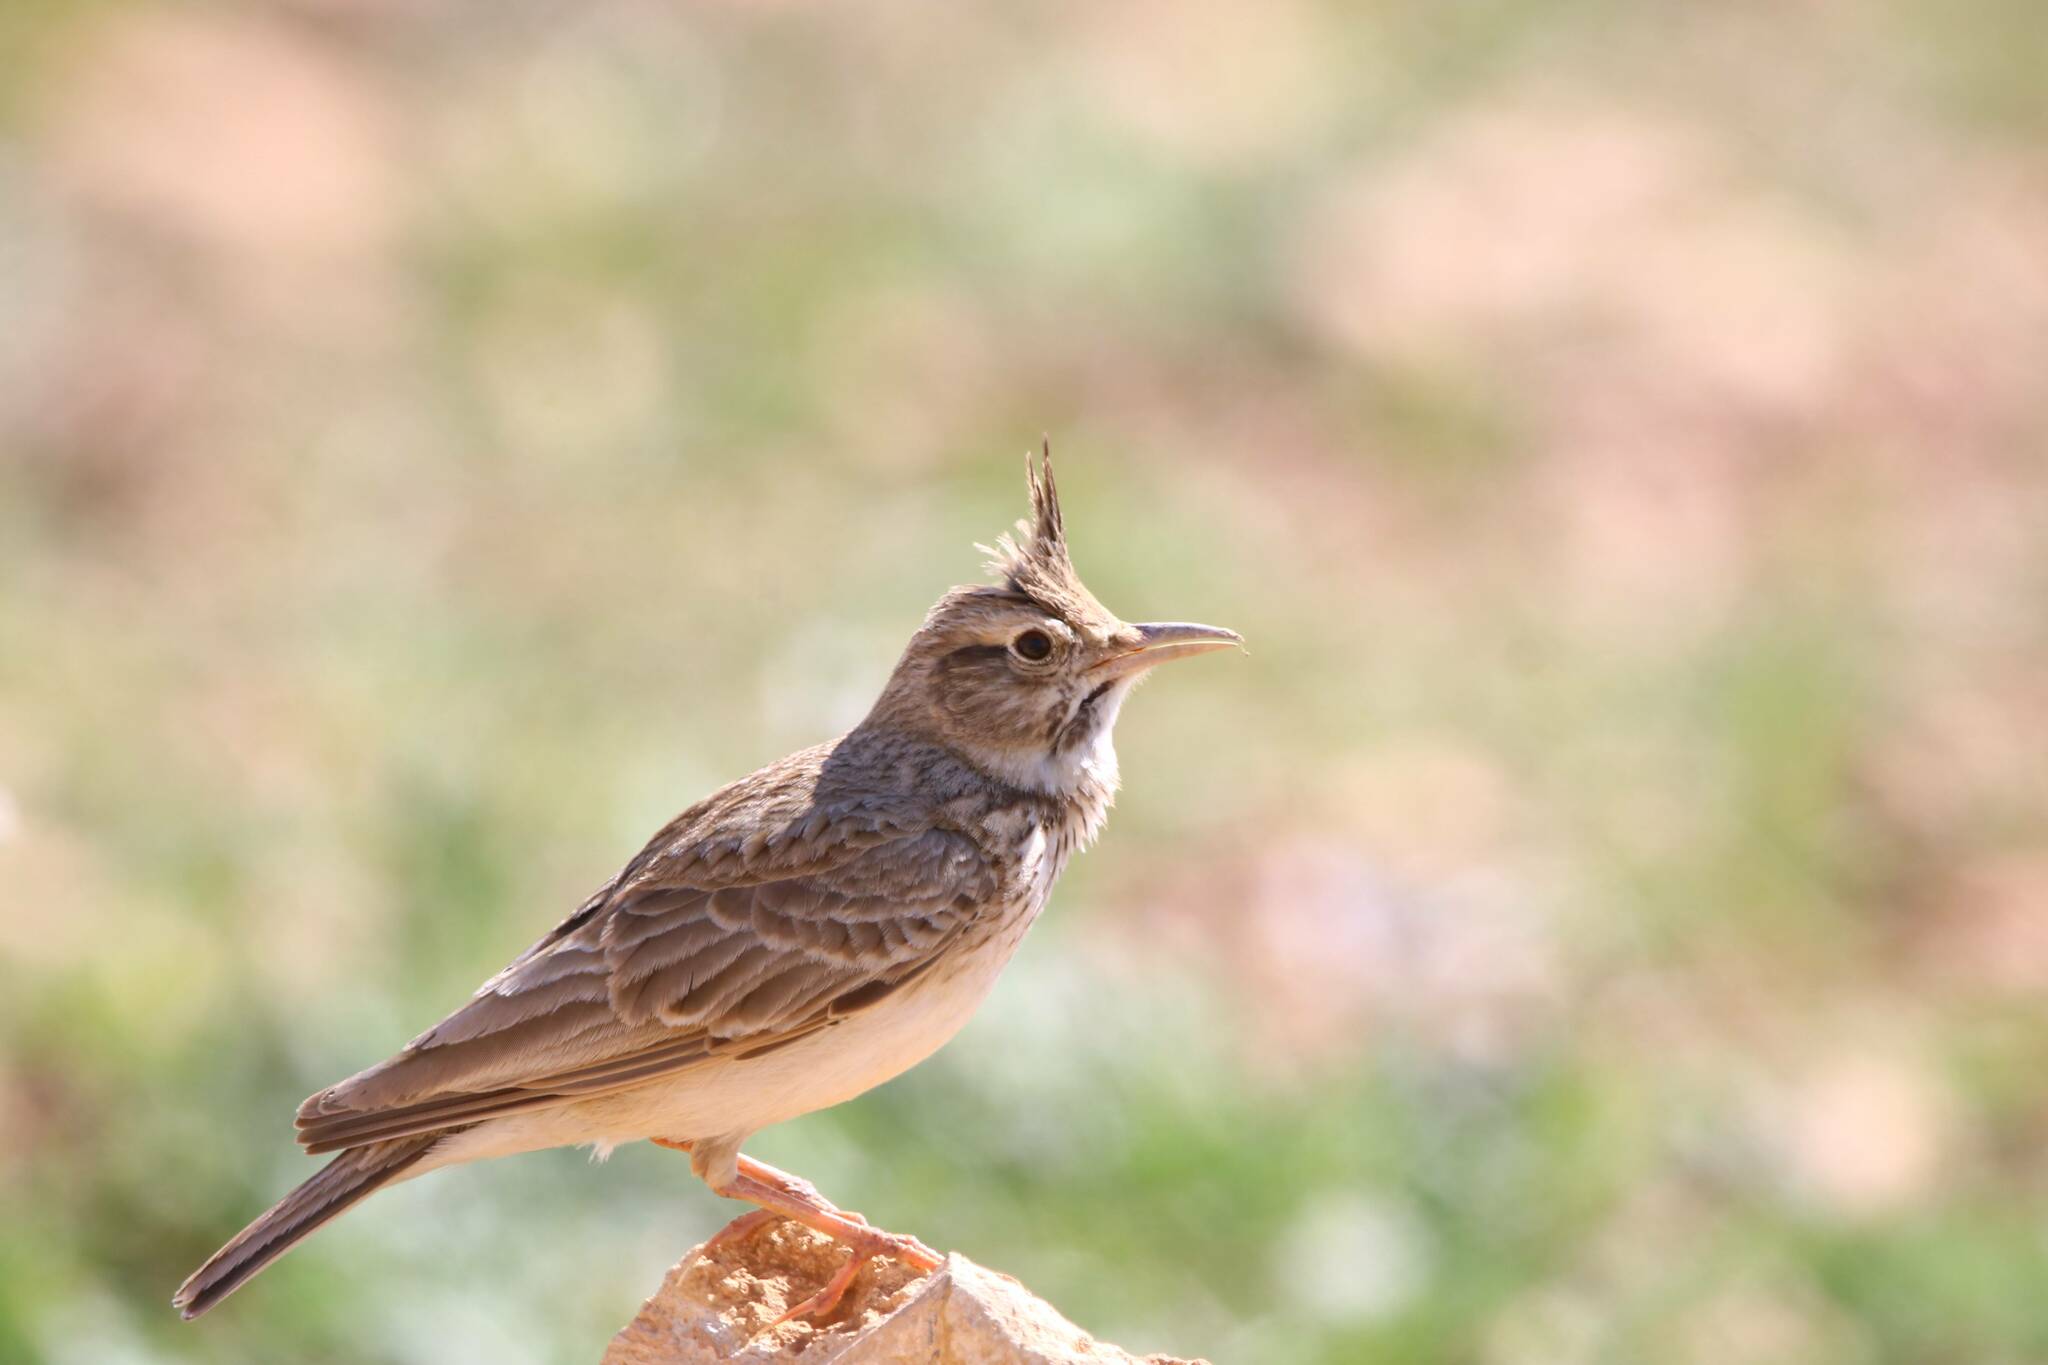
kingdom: Animalia
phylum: Chordata
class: Aves
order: Passeriformes
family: Alaudidae
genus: Galerida
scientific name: Galerida cristata
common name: Crested lark
